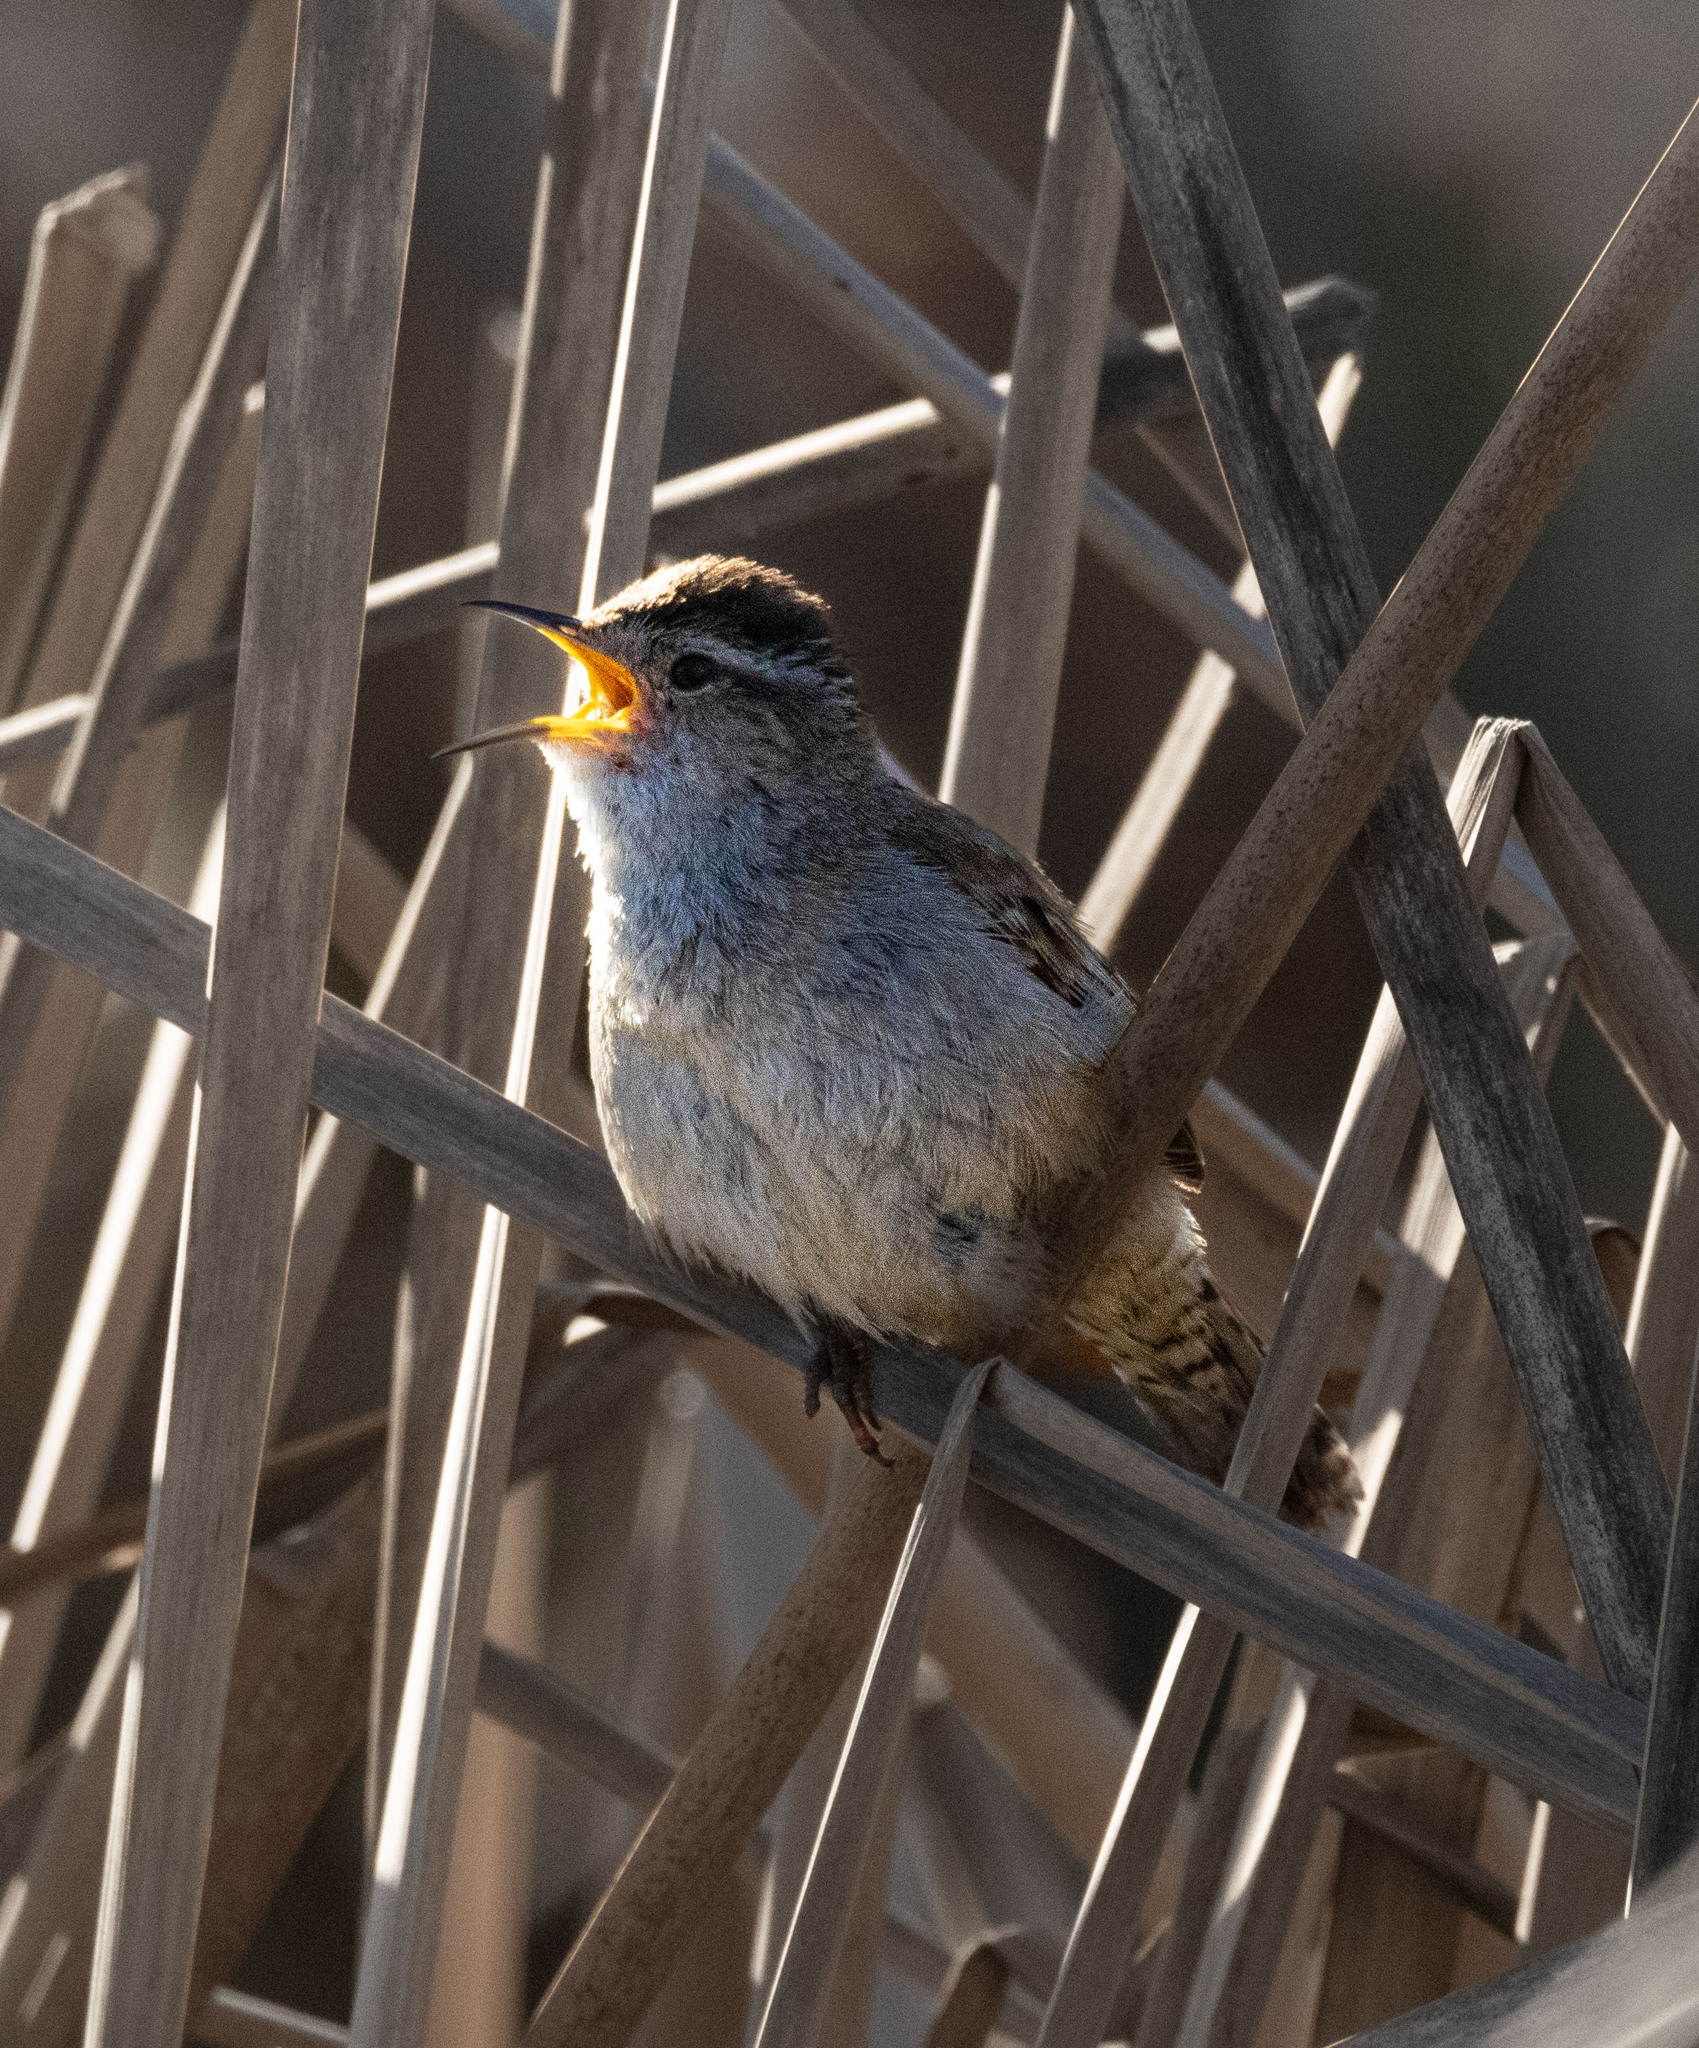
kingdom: Animalia
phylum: Chordata
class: Aves
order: Passeriformes
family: Troglodytidae
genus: Cistothorus
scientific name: Cistothorus palustris
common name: Marsh wren
